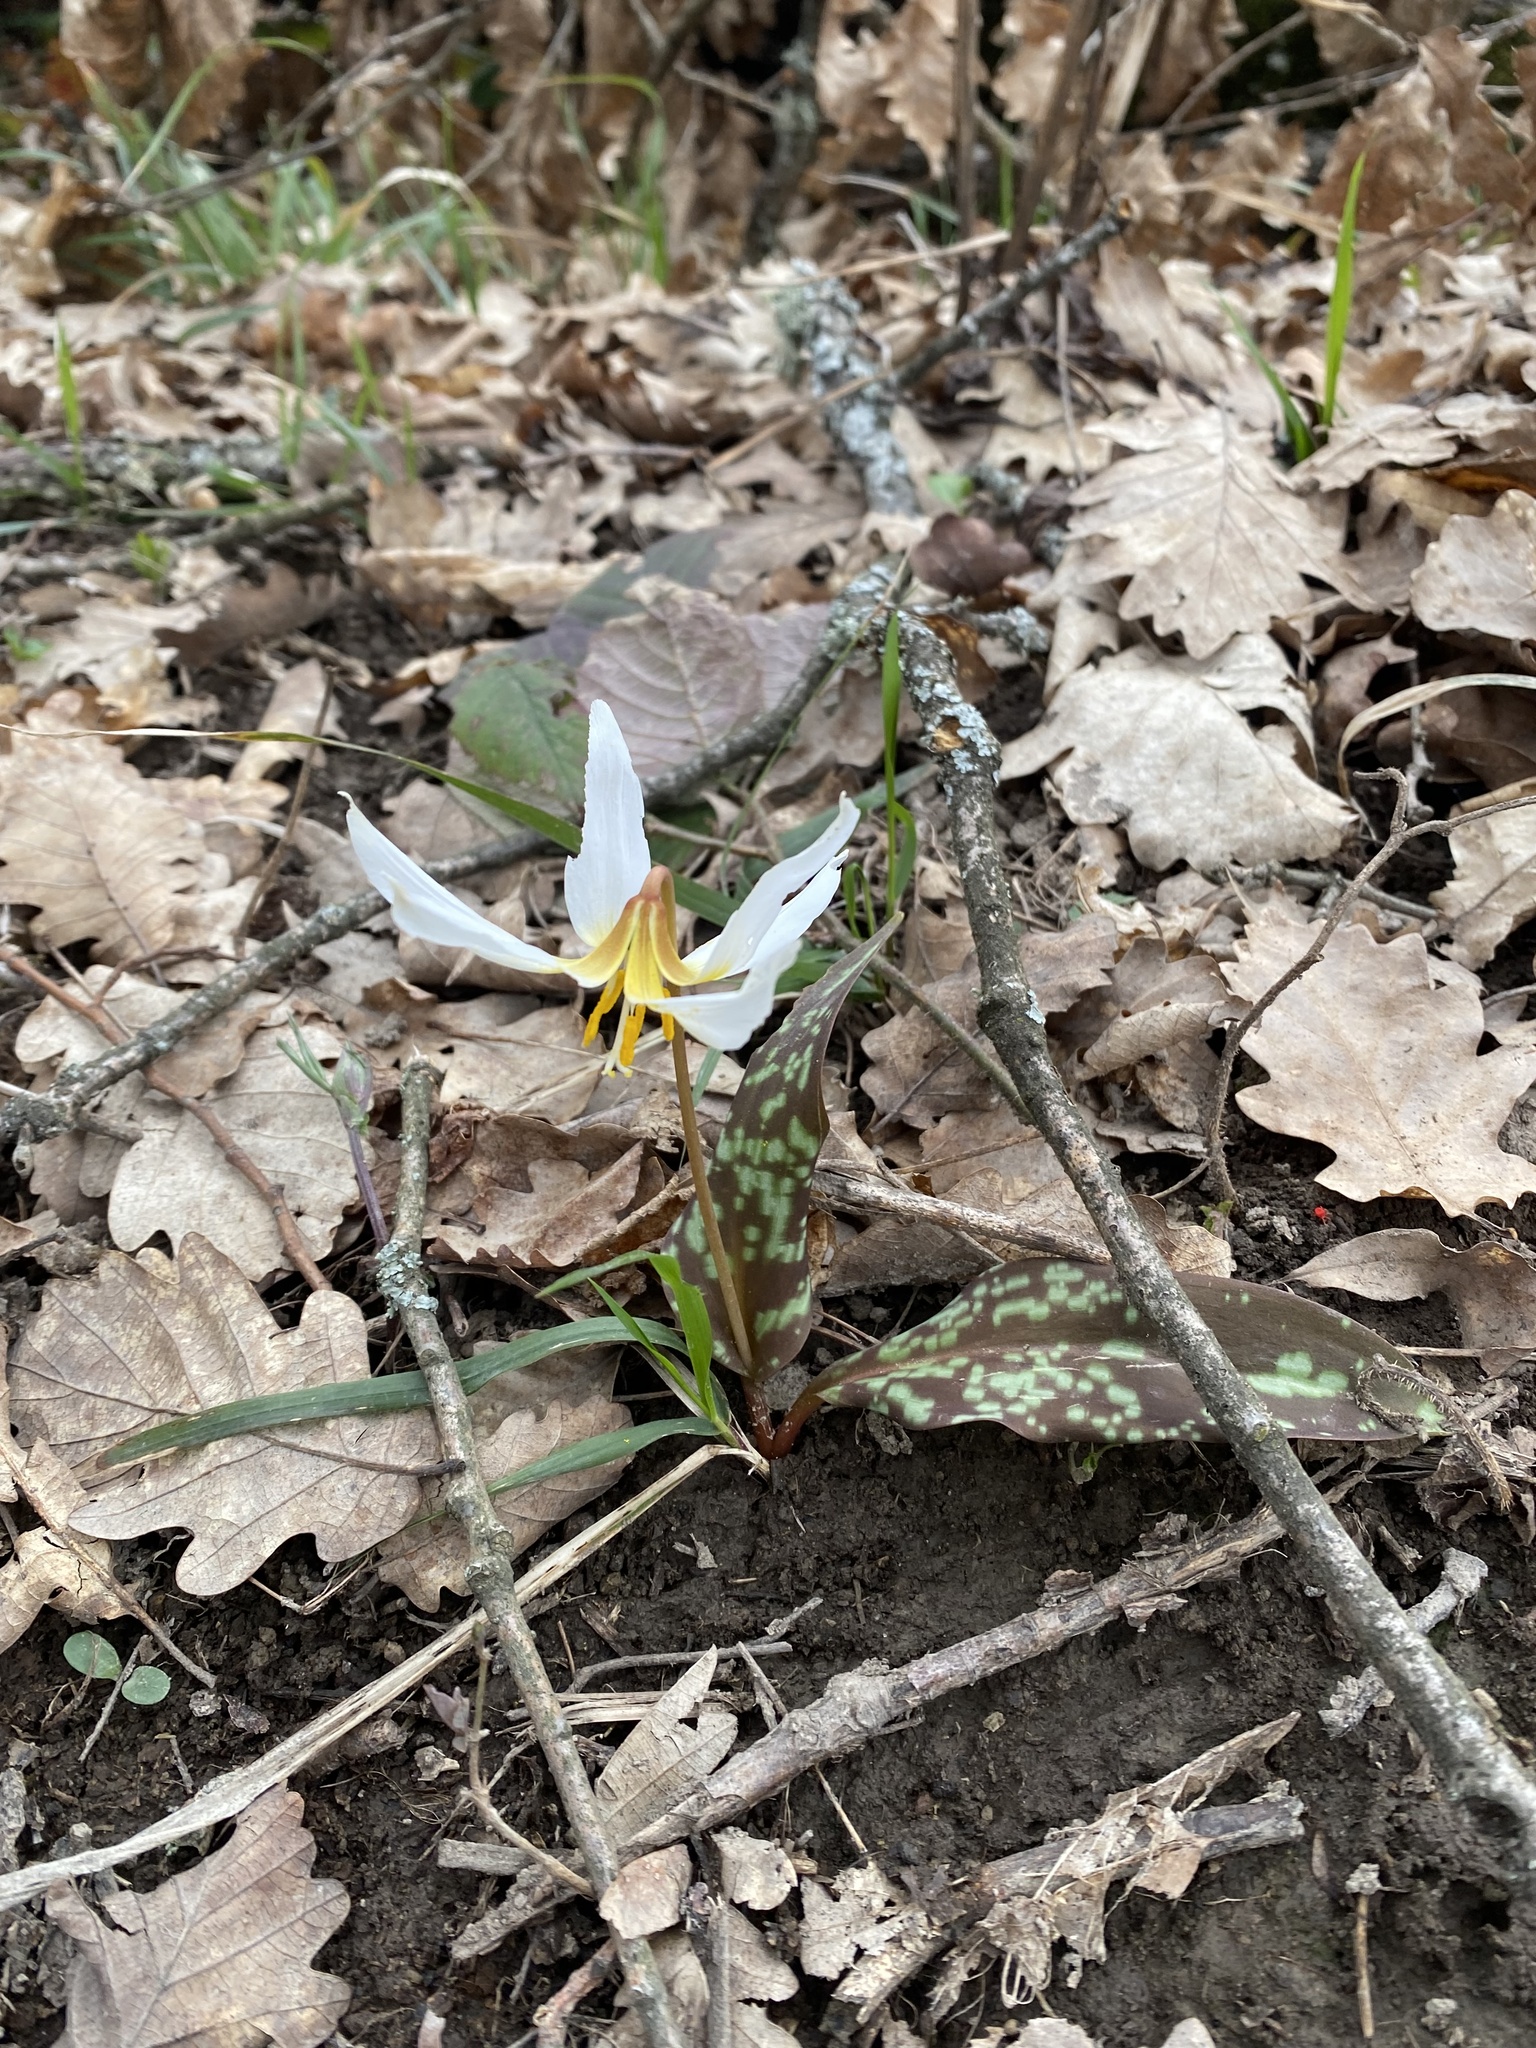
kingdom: Plantae
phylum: Tracheophyta
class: Liliopsida
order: Liliales
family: Liliaceae
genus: Erythronium
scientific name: Erythronium caucasicum
